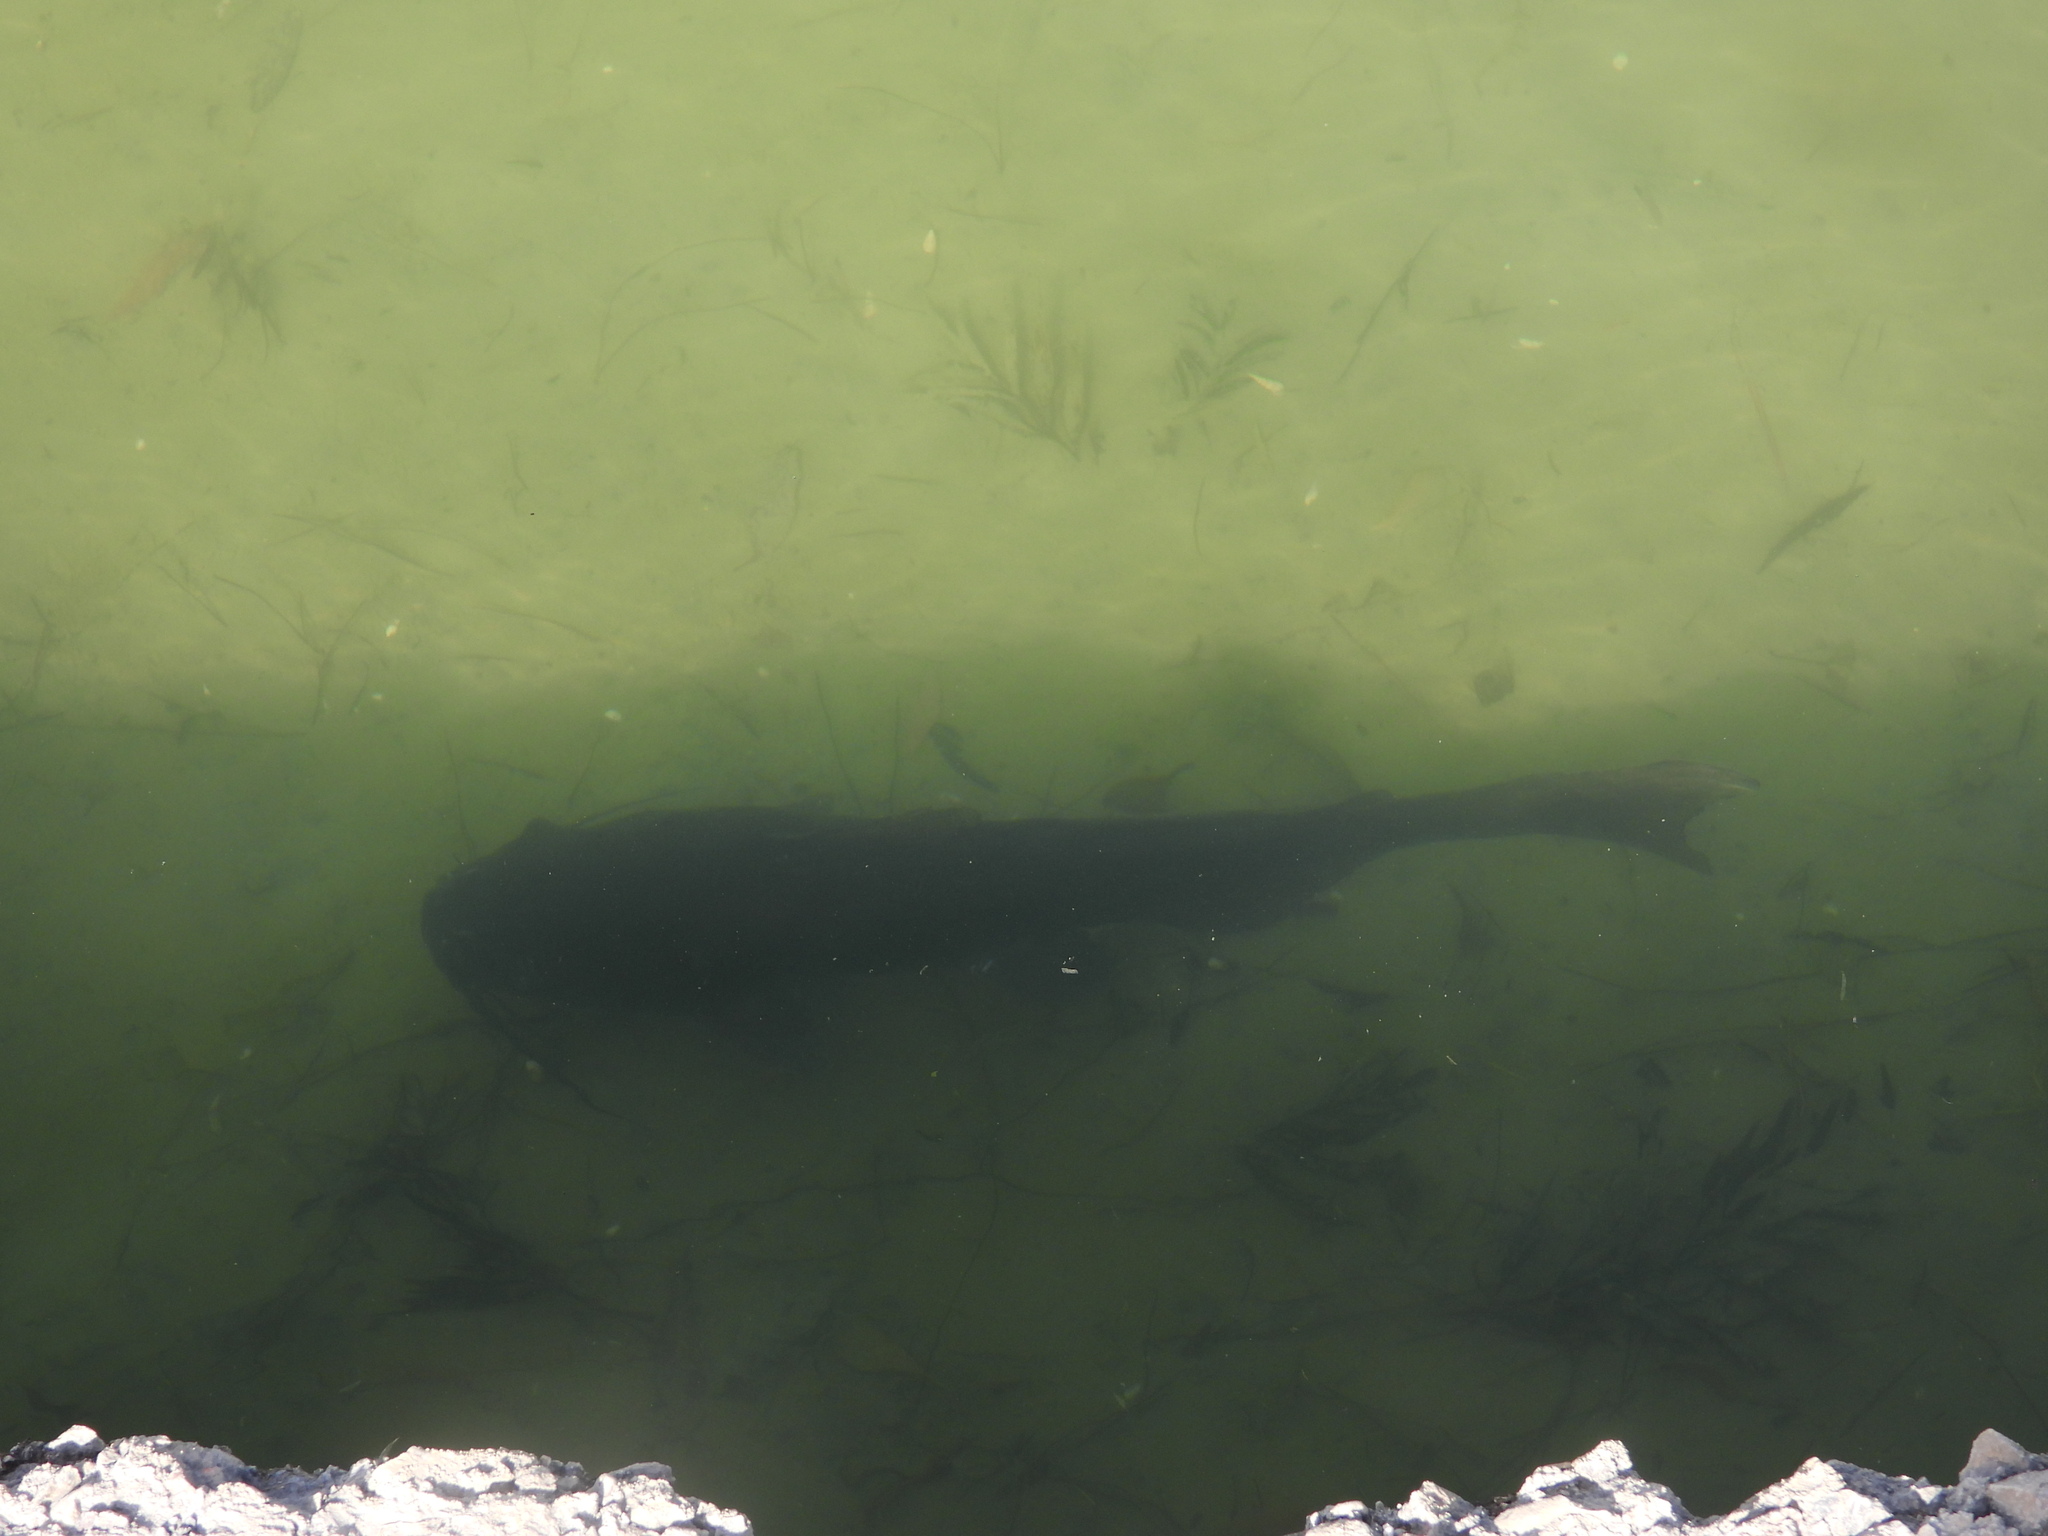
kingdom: Animalia
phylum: Chordata
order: Siluriformes
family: Ictaluridae
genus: Ictalurus
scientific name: Ictalurus punctatus
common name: Channel catfish
